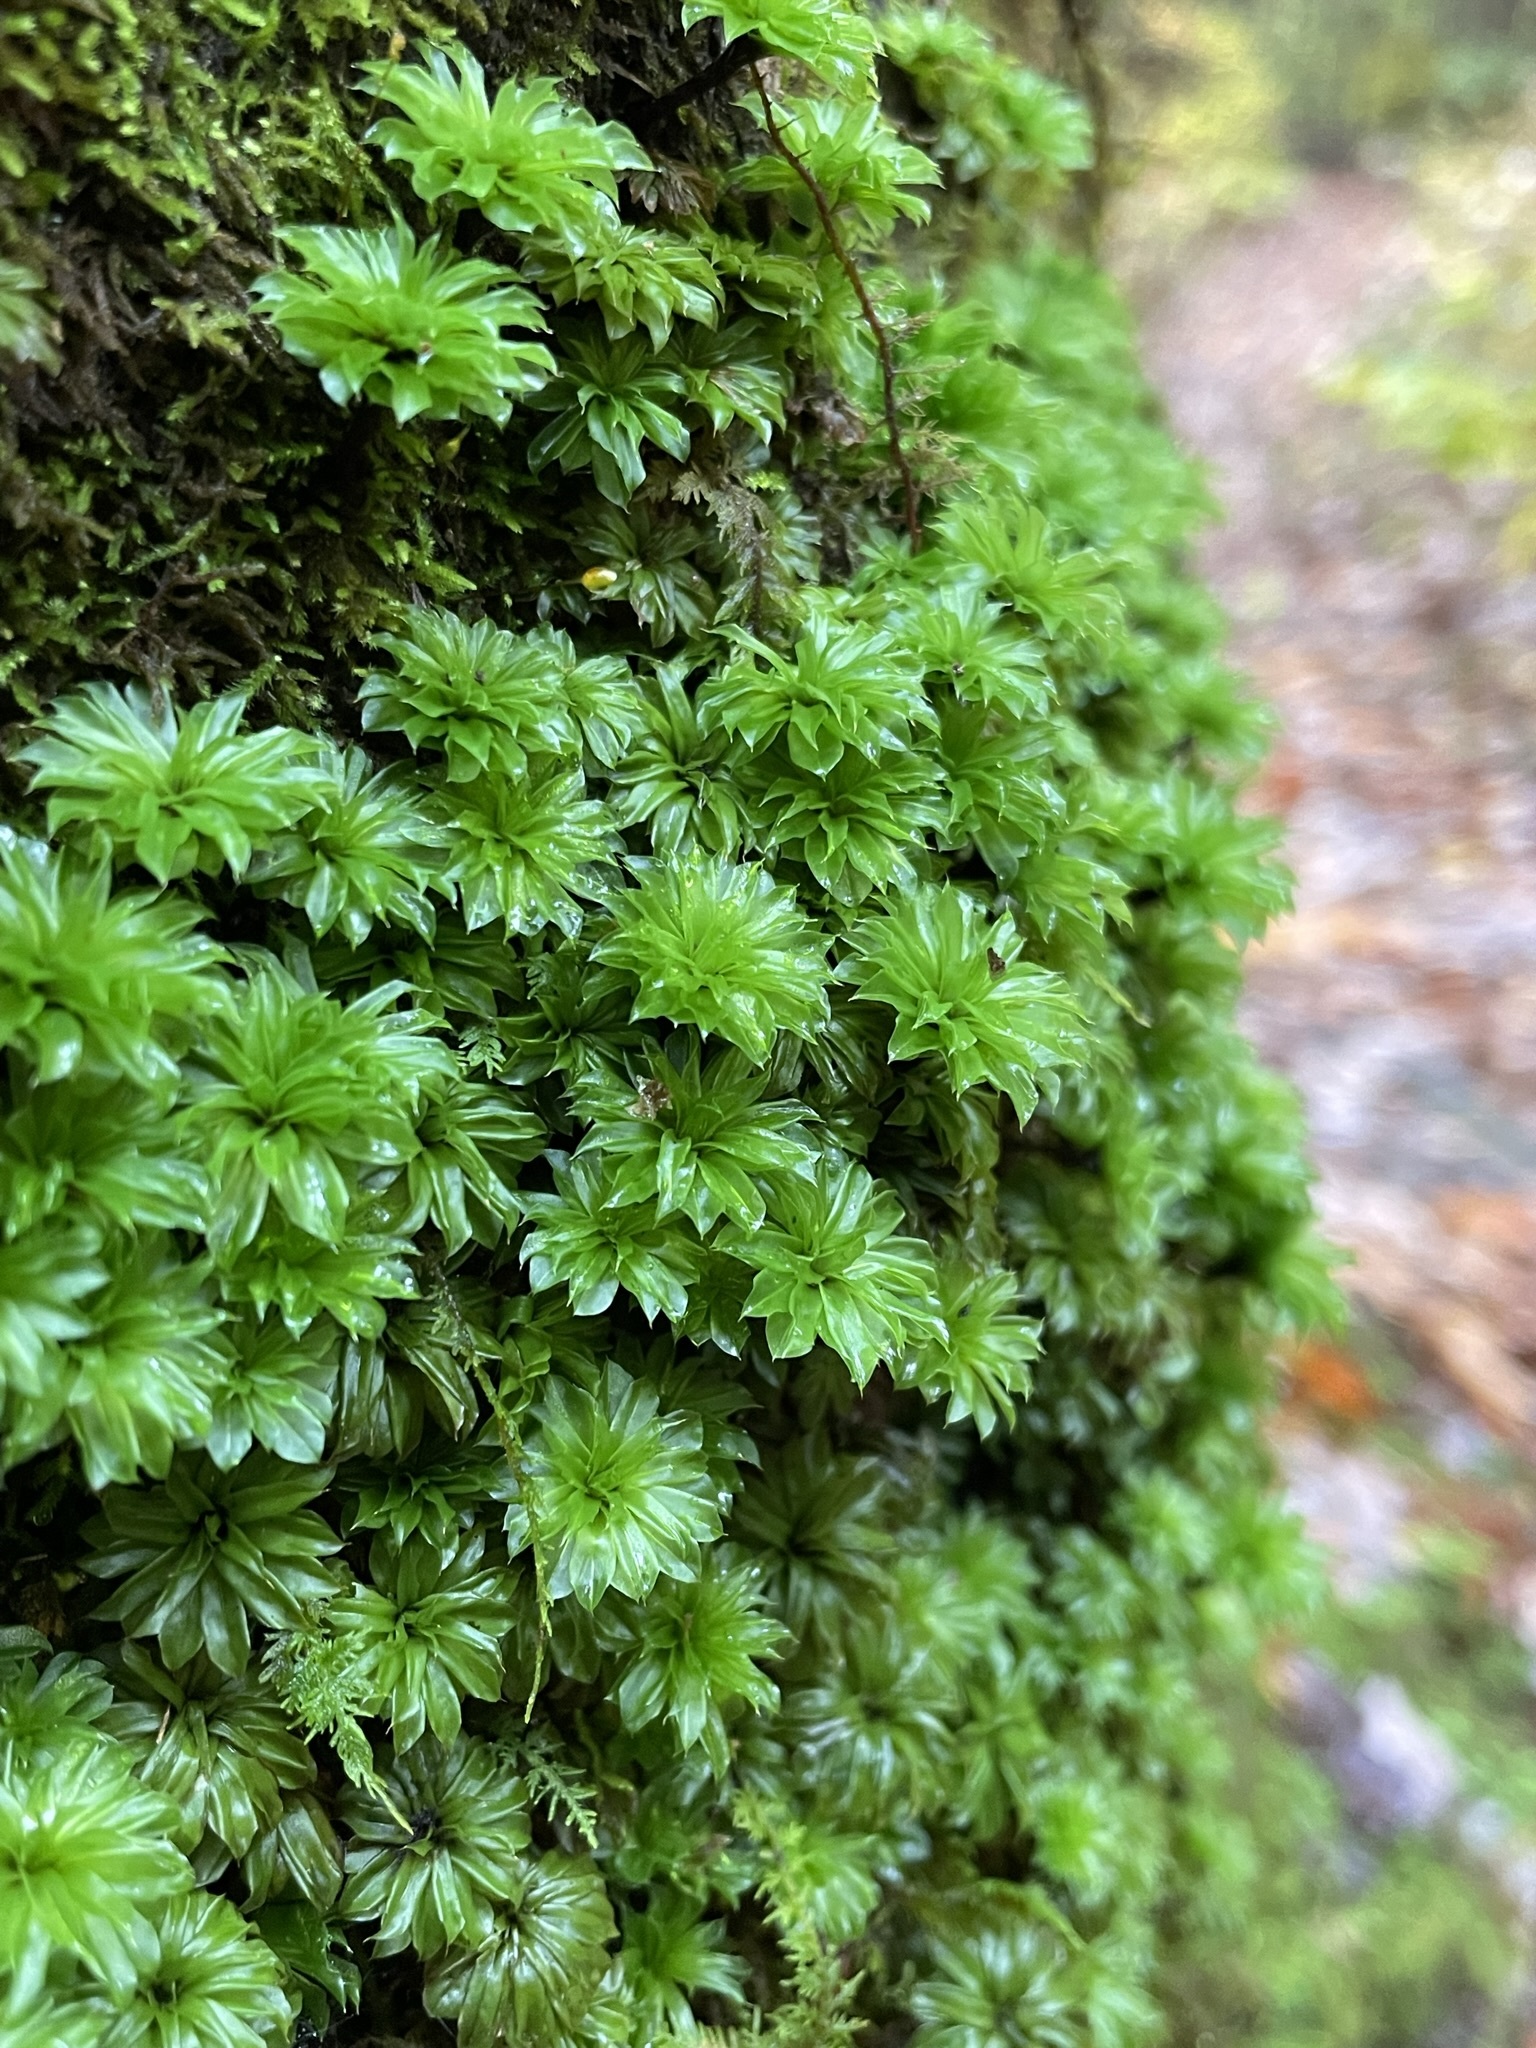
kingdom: Plantae
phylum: Bryophyta
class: Bryopsida
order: Bryales
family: Bryaceae
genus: Rhodobryum
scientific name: Rhodobryum ontariense
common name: Ontario rhodobryum moss
